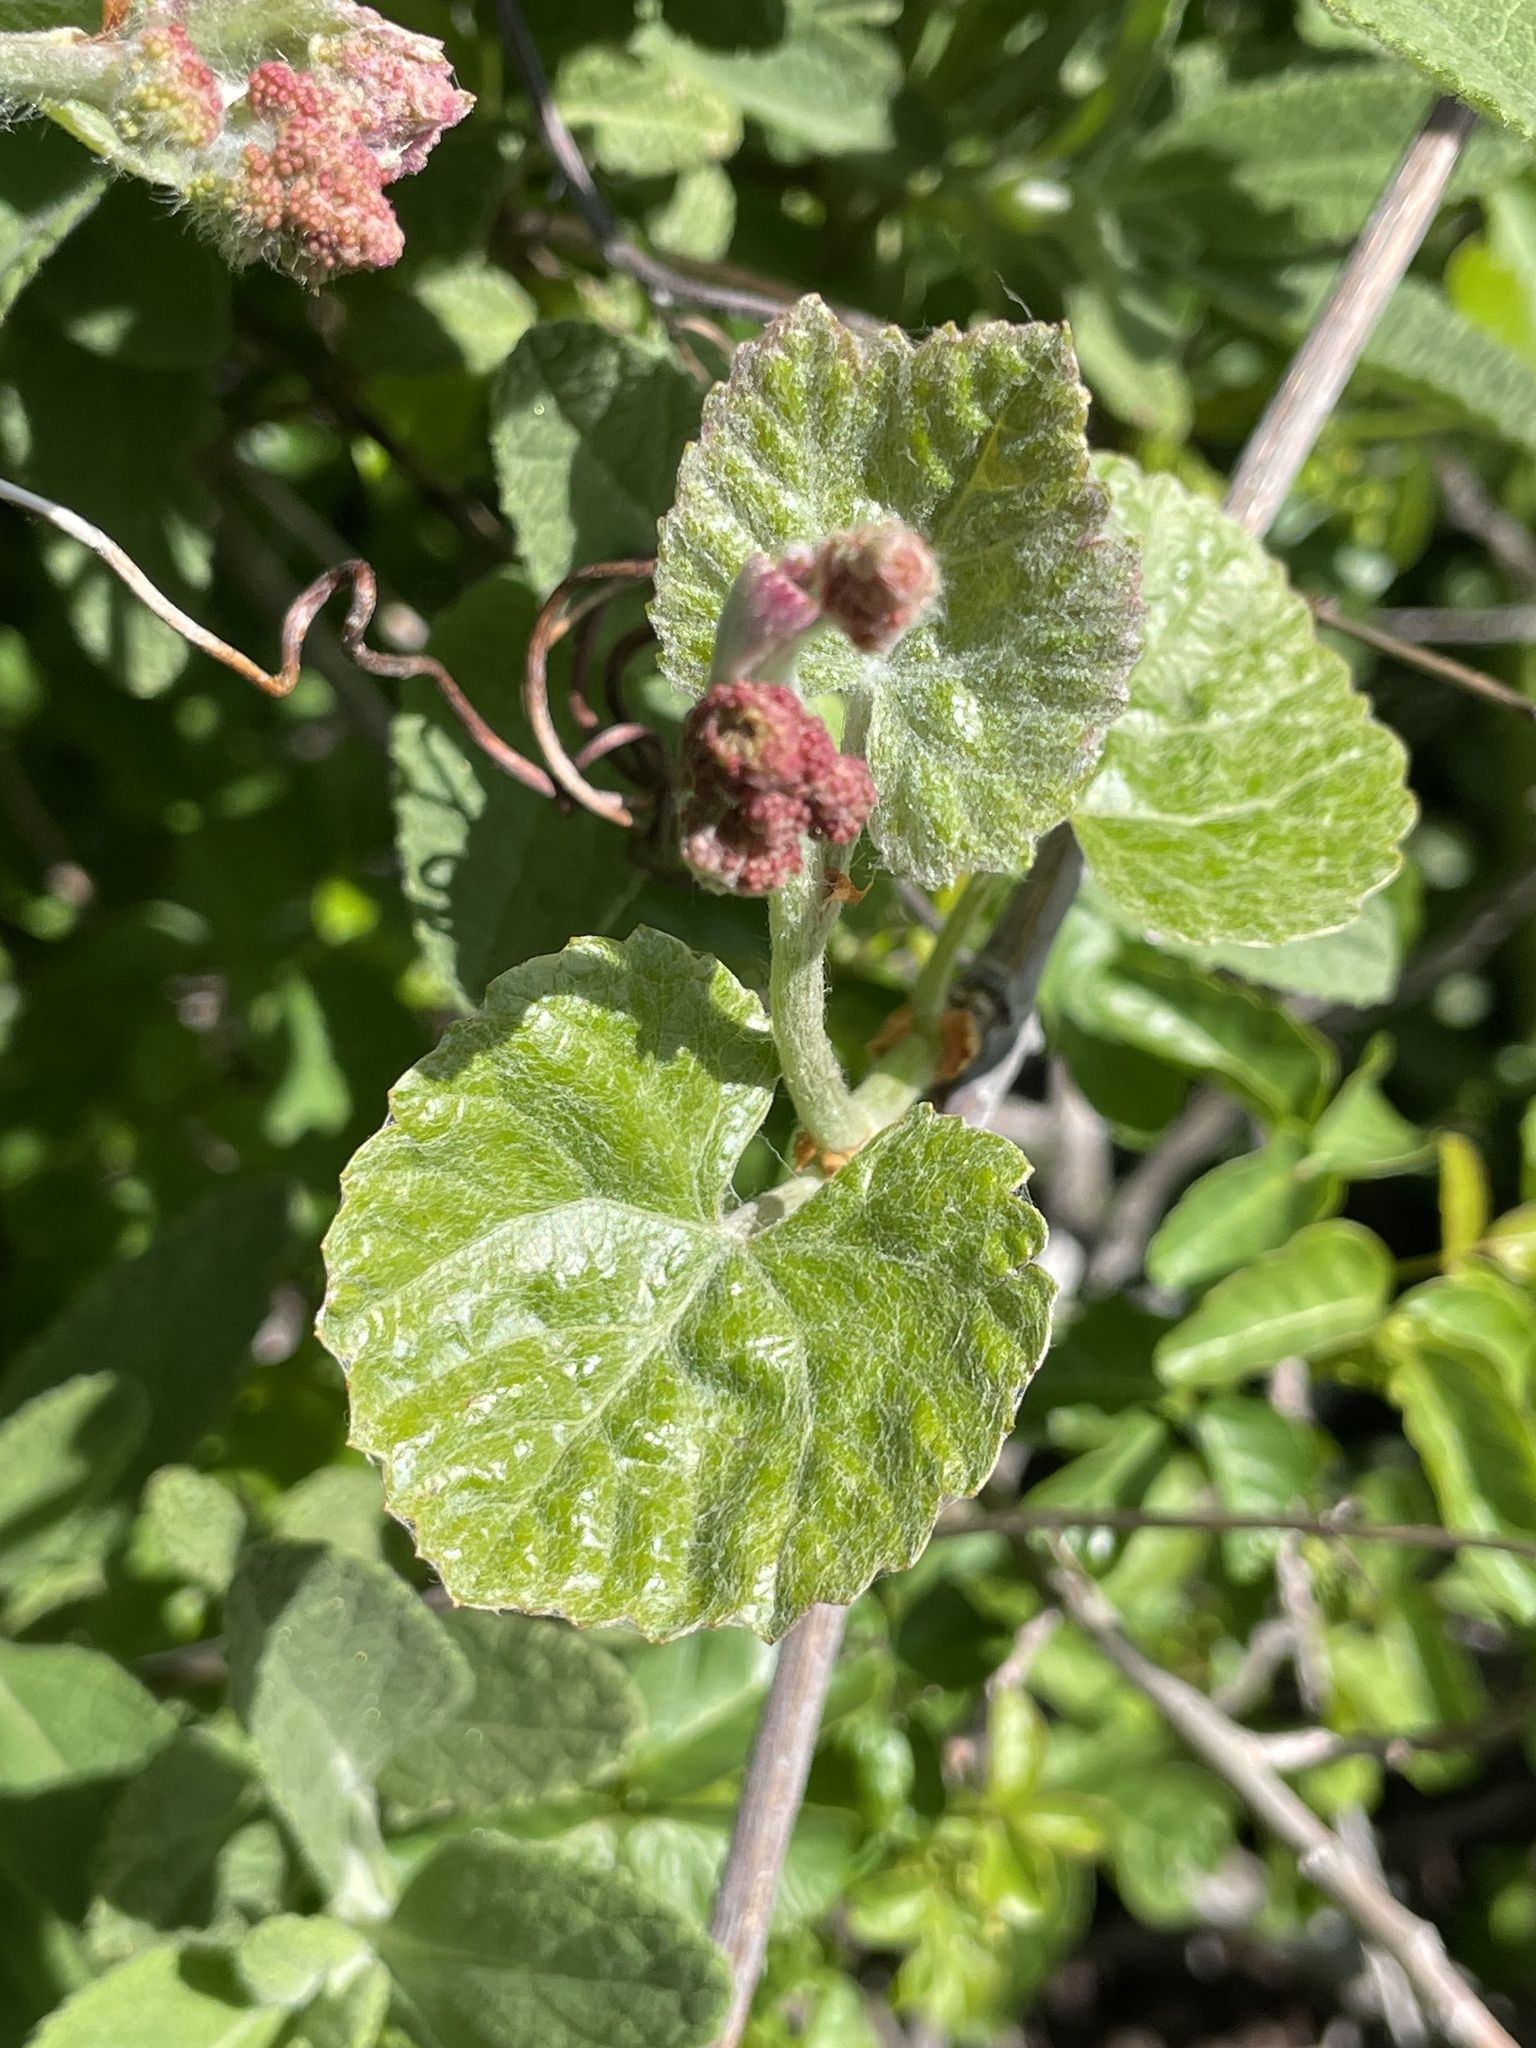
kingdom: Plantae
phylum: Tracheophyta
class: Magnoliopsida
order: Vitales
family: Vitaceae
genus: Vitis
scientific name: Vitis californica
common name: California wild grape
